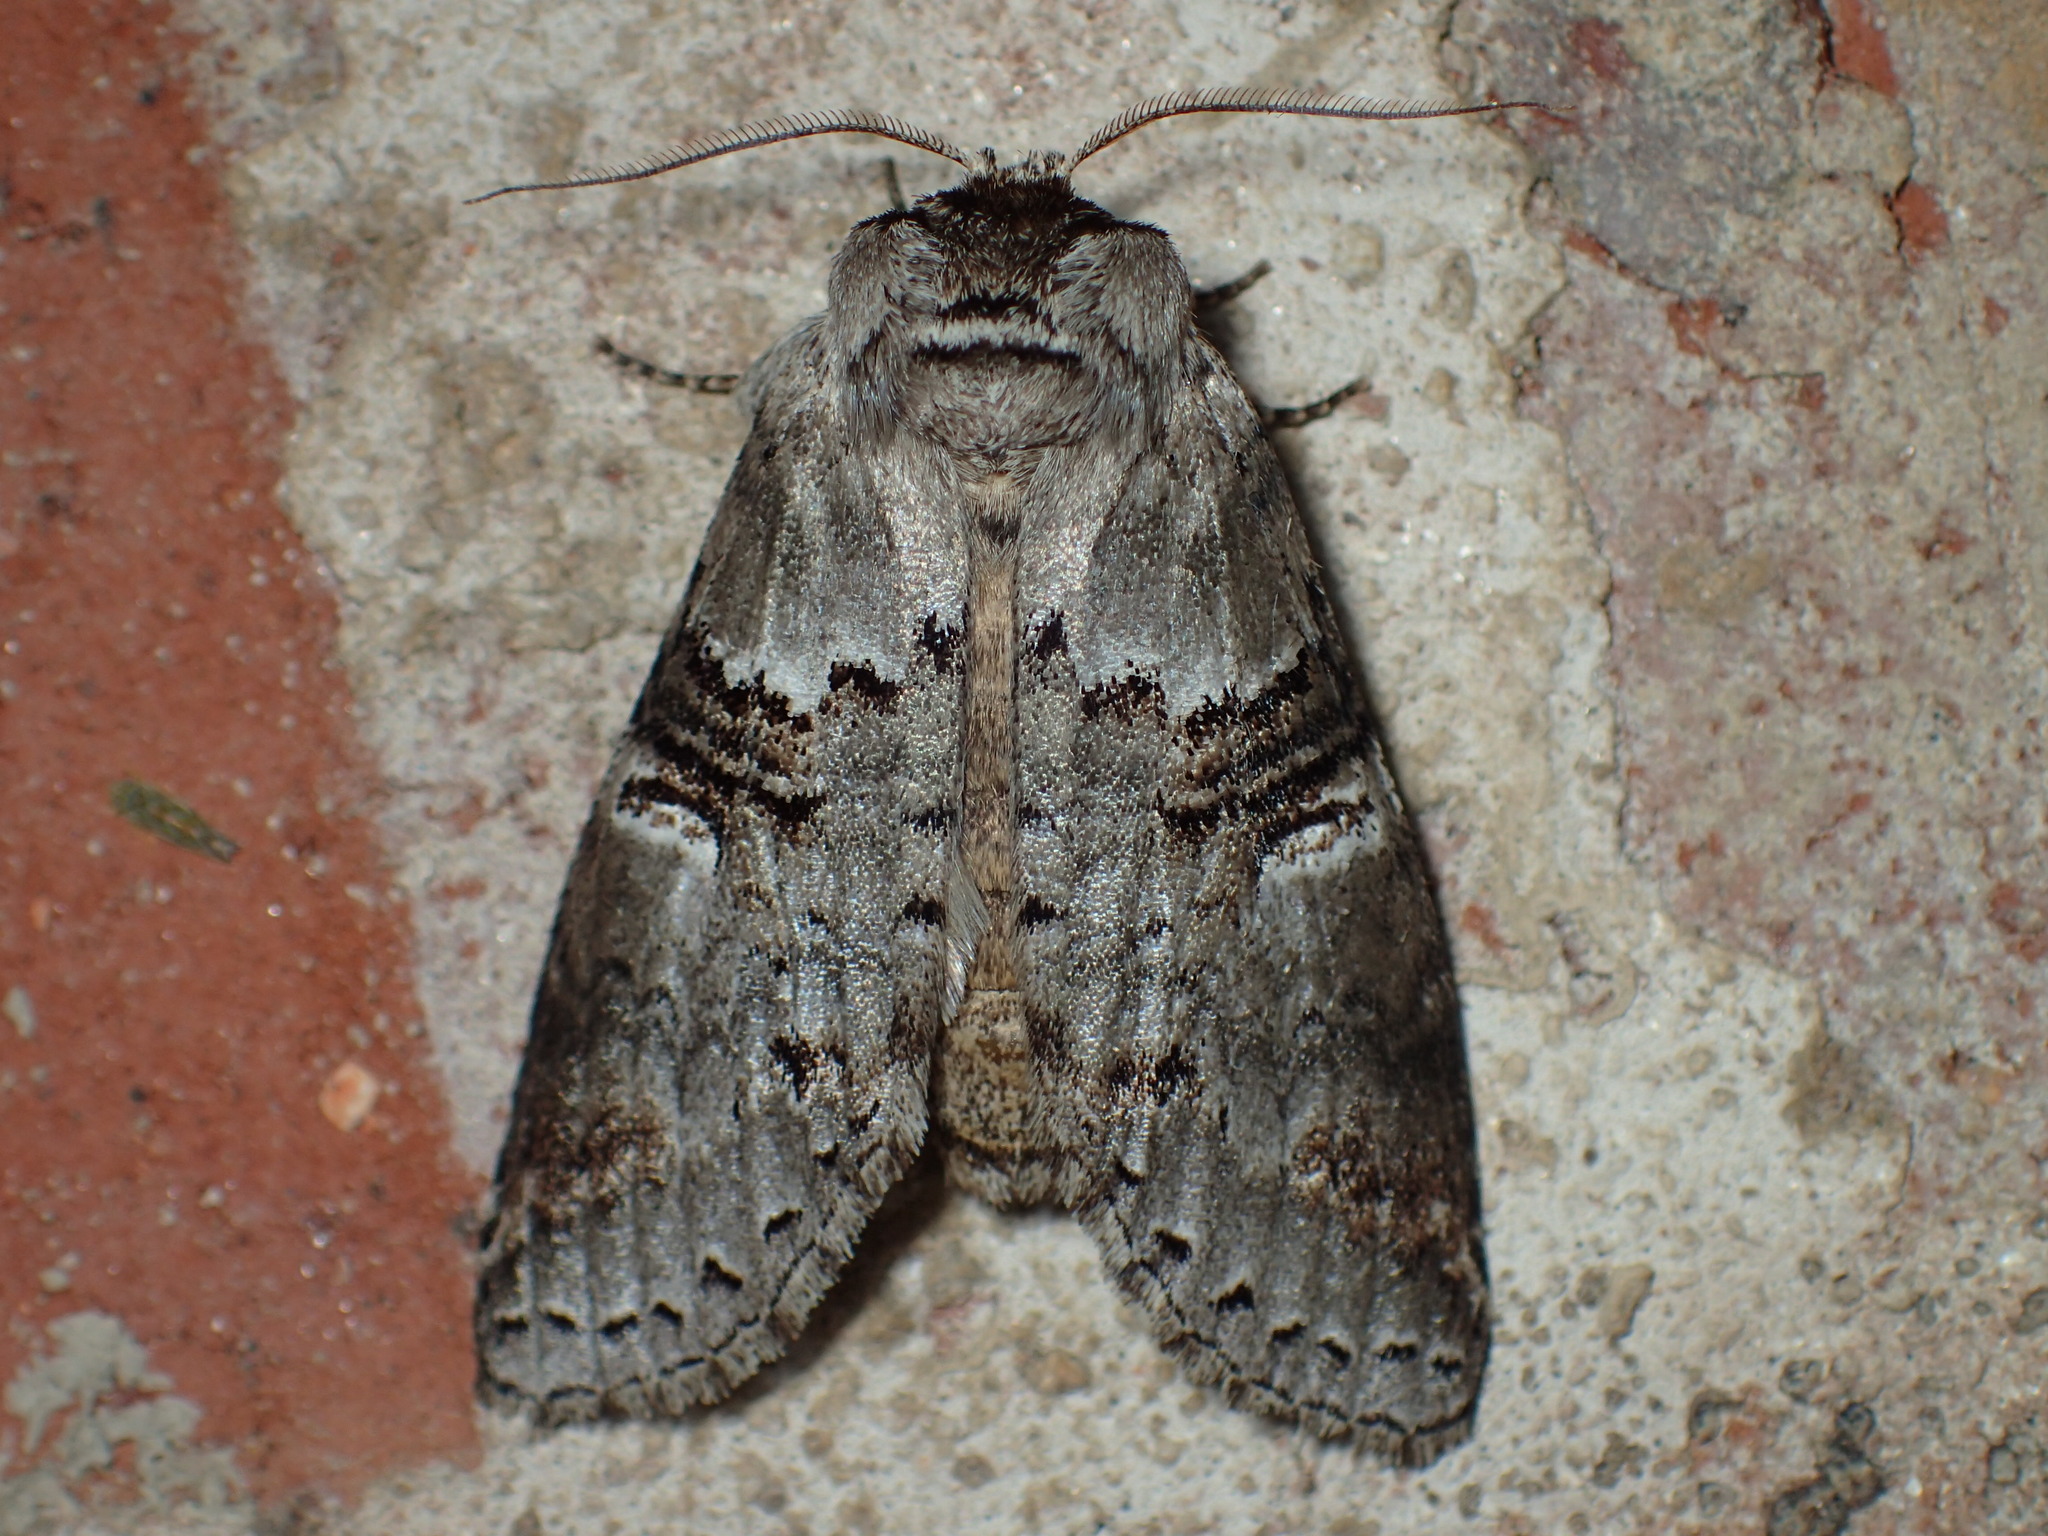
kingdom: Animalia
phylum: Arthropoda
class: Insecta
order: Lepidoptera
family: Notodontidae
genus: Ellida
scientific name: Ellida caniplaga
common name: Linden prominent
